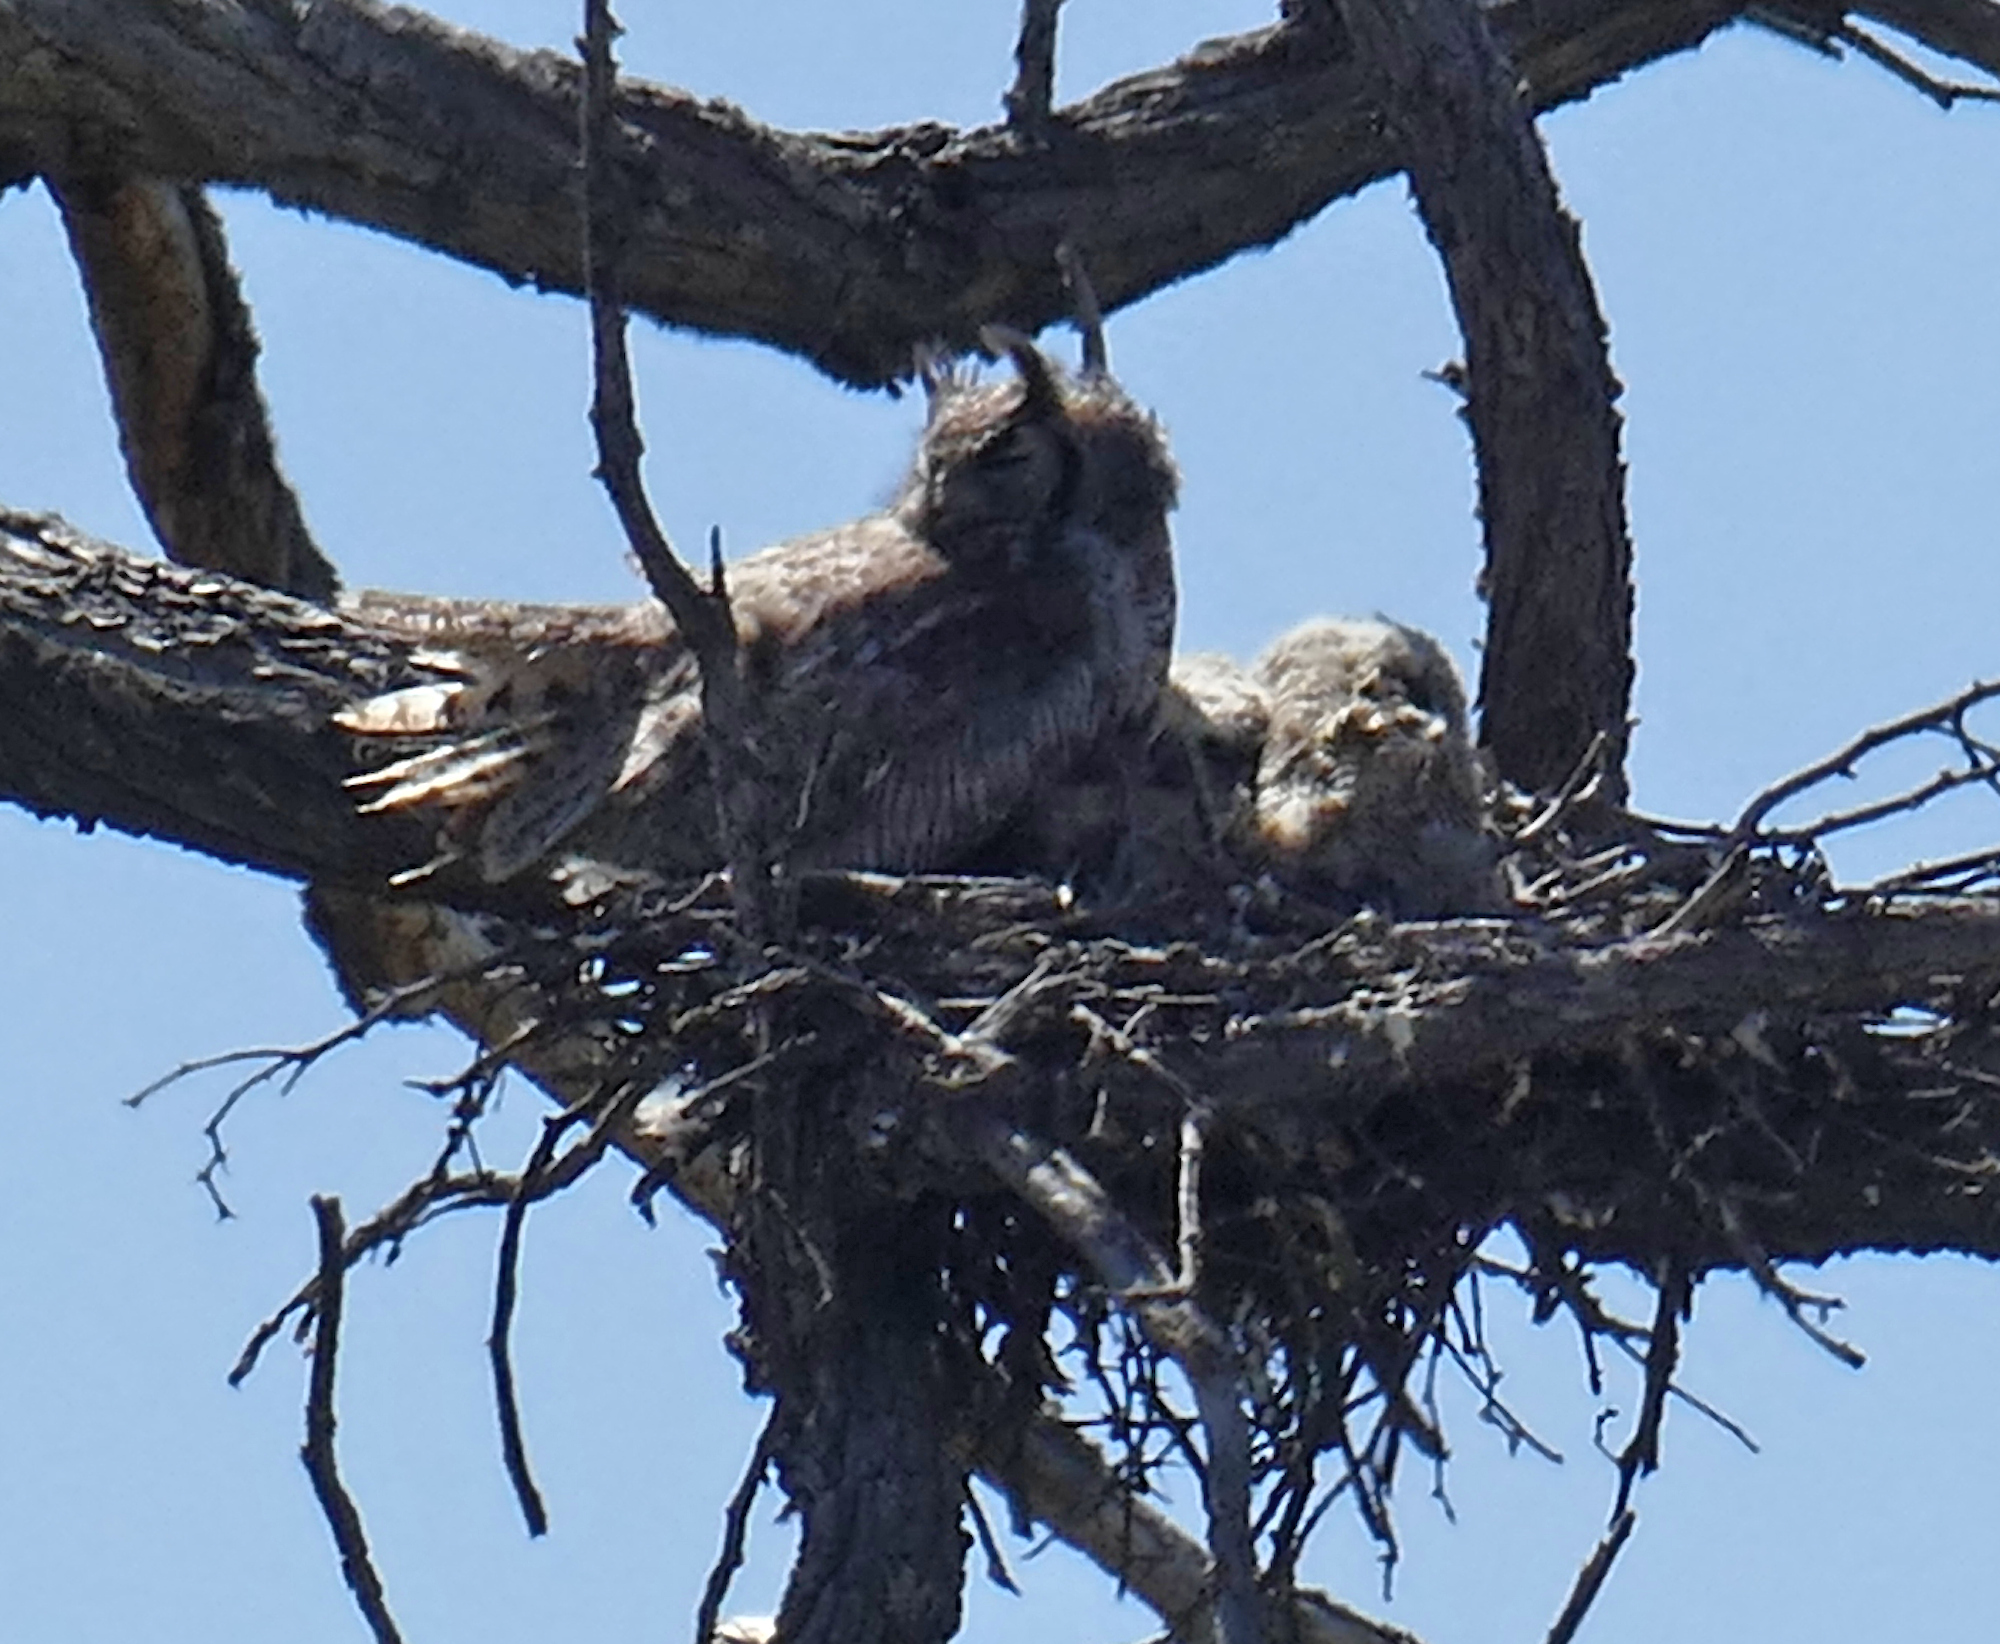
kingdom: Animalia
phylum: Chordata
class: Aves
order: Strigiformes
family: Strigidae
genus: Bubo
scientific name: Bubo virginianus
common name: Great horned owl
